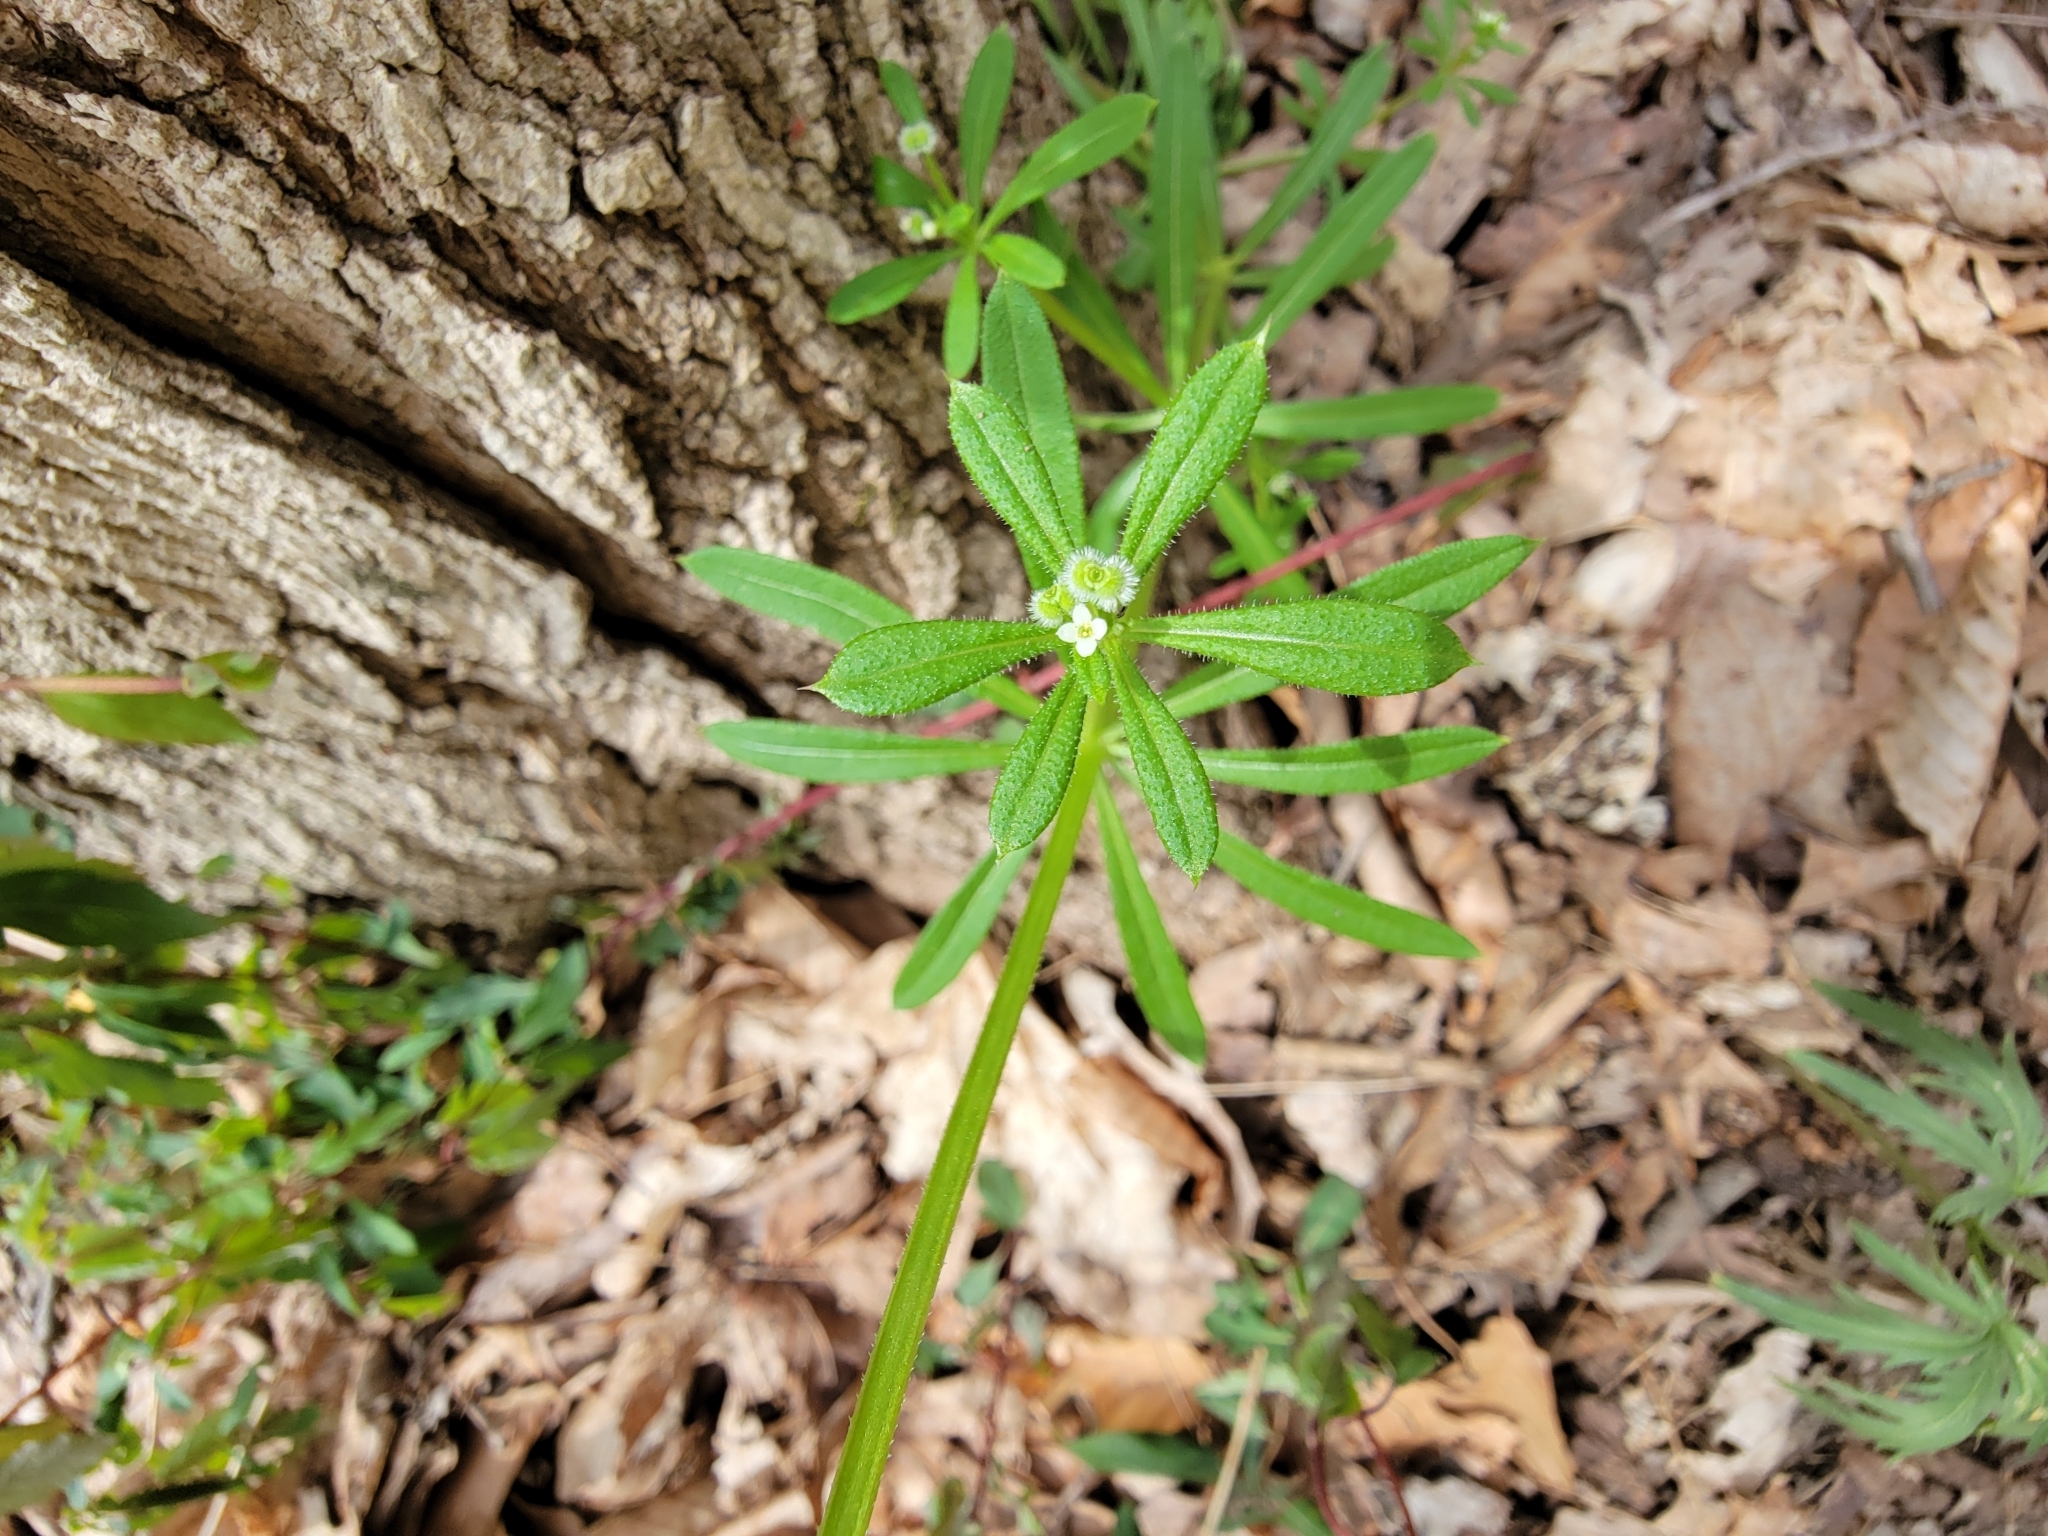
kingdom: Plantae
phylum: Tracheophyta
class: Magnoliopsida
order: Gentianales
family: Rubiaceae
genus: Galium
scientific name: Galium aparine
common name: Cleavers
